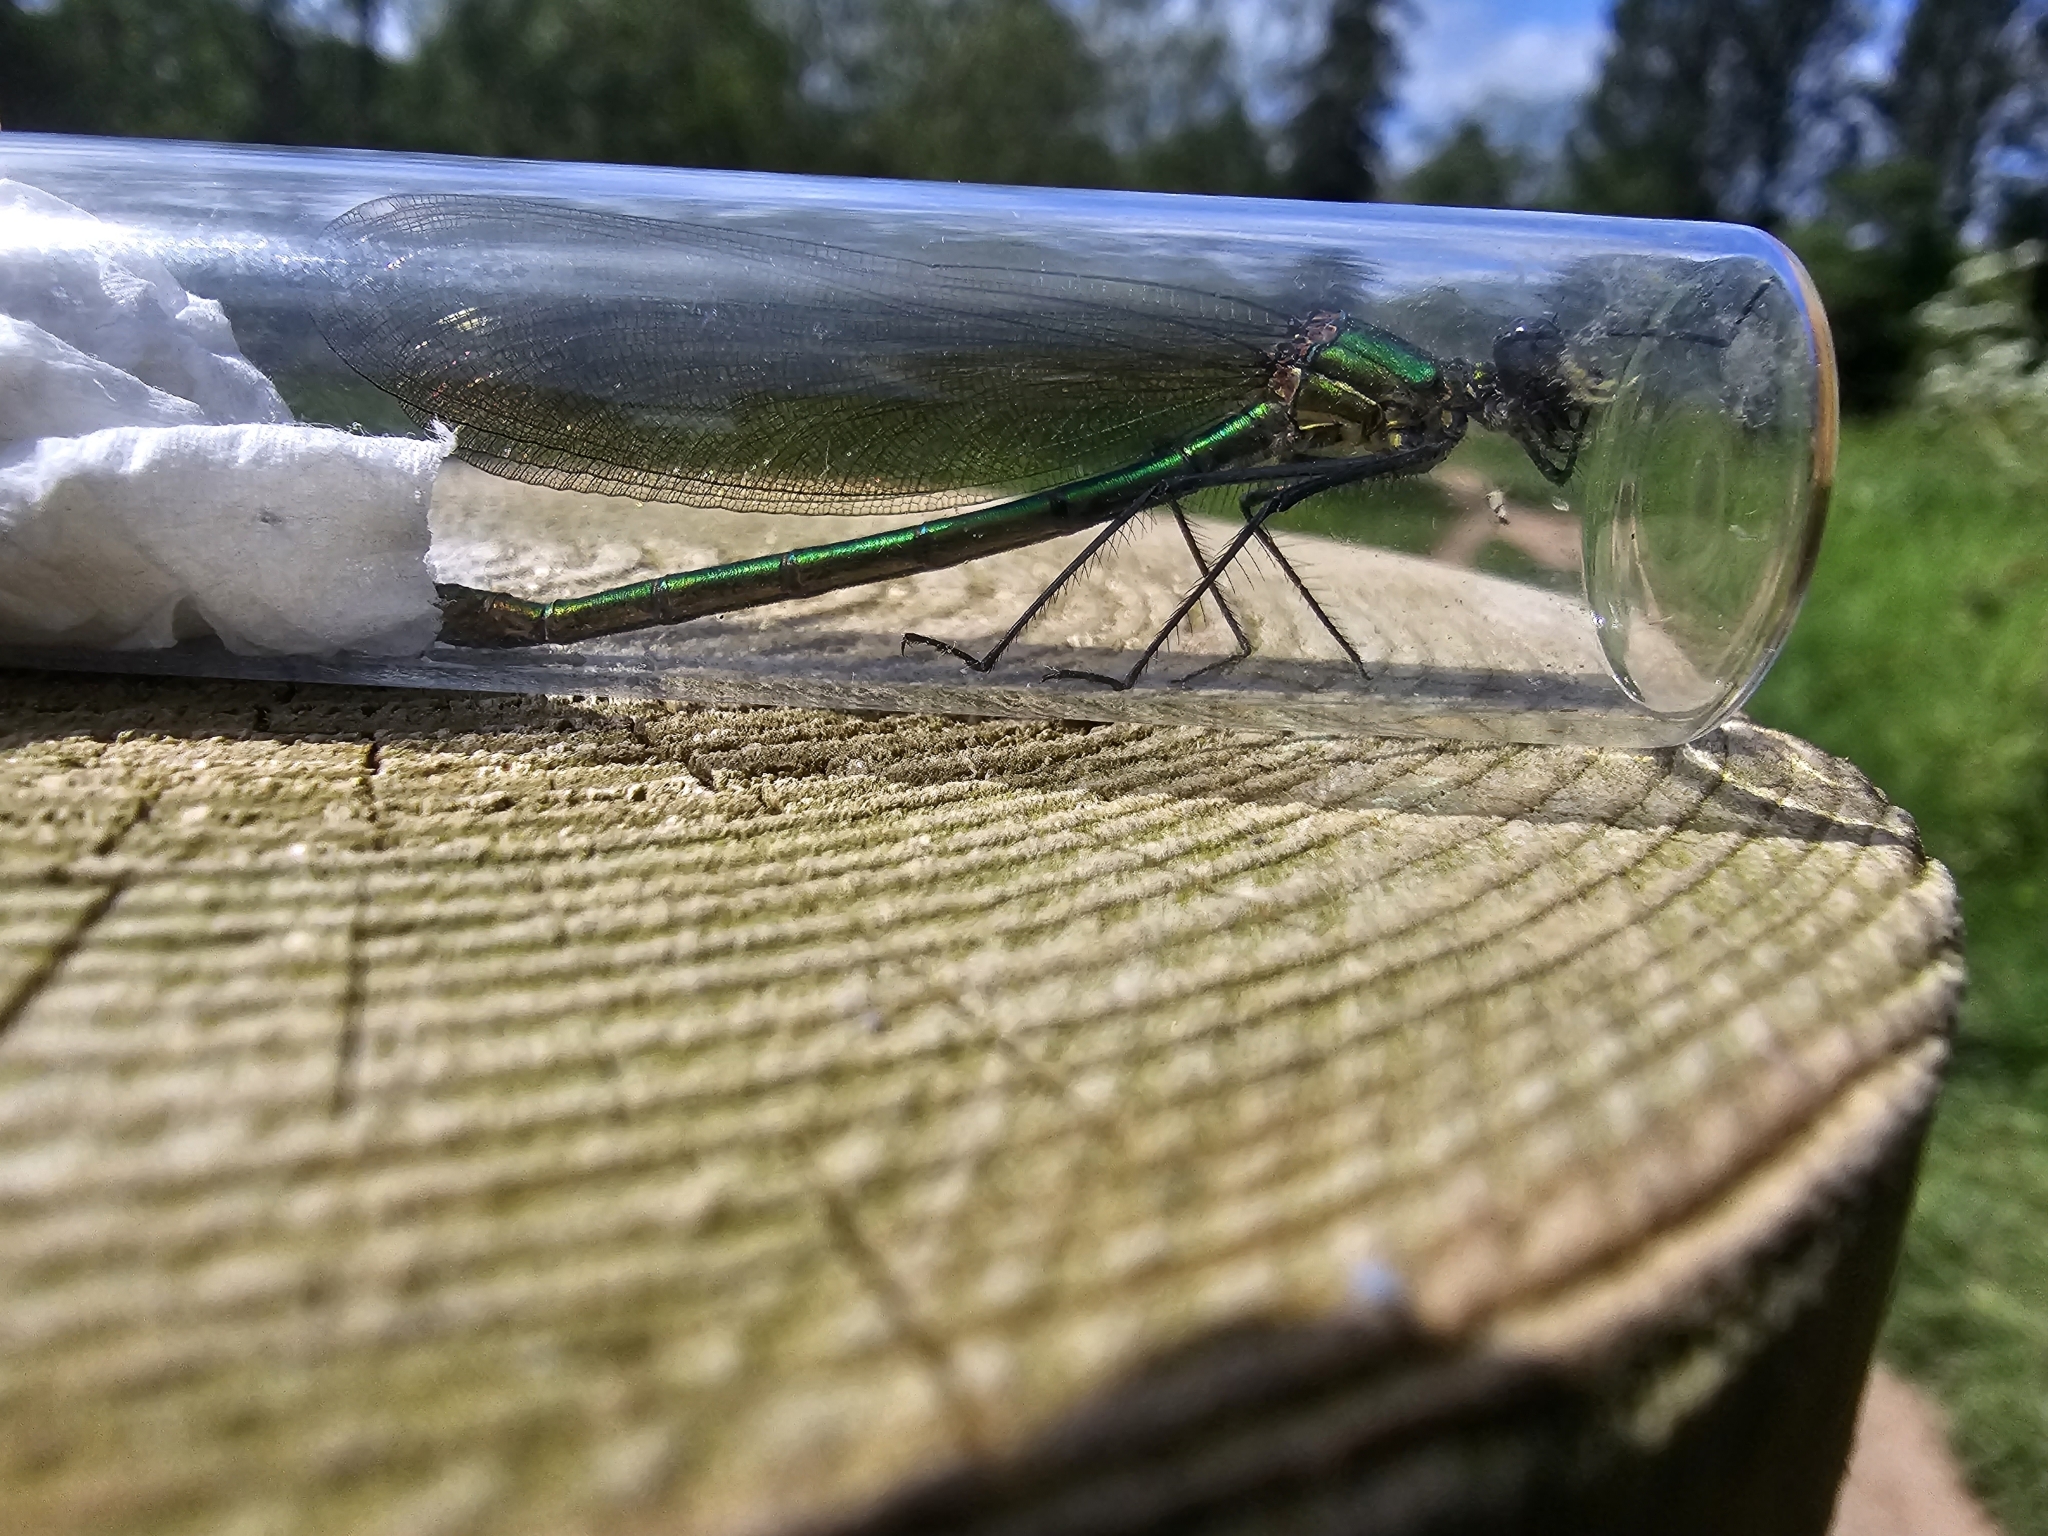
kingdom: Animalia
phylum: Arthropoda
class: Insecta
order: Odonata
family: Calopterygidae
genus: Calopteryx
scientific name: Calopteryx splendens
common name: Banded demoiselle
